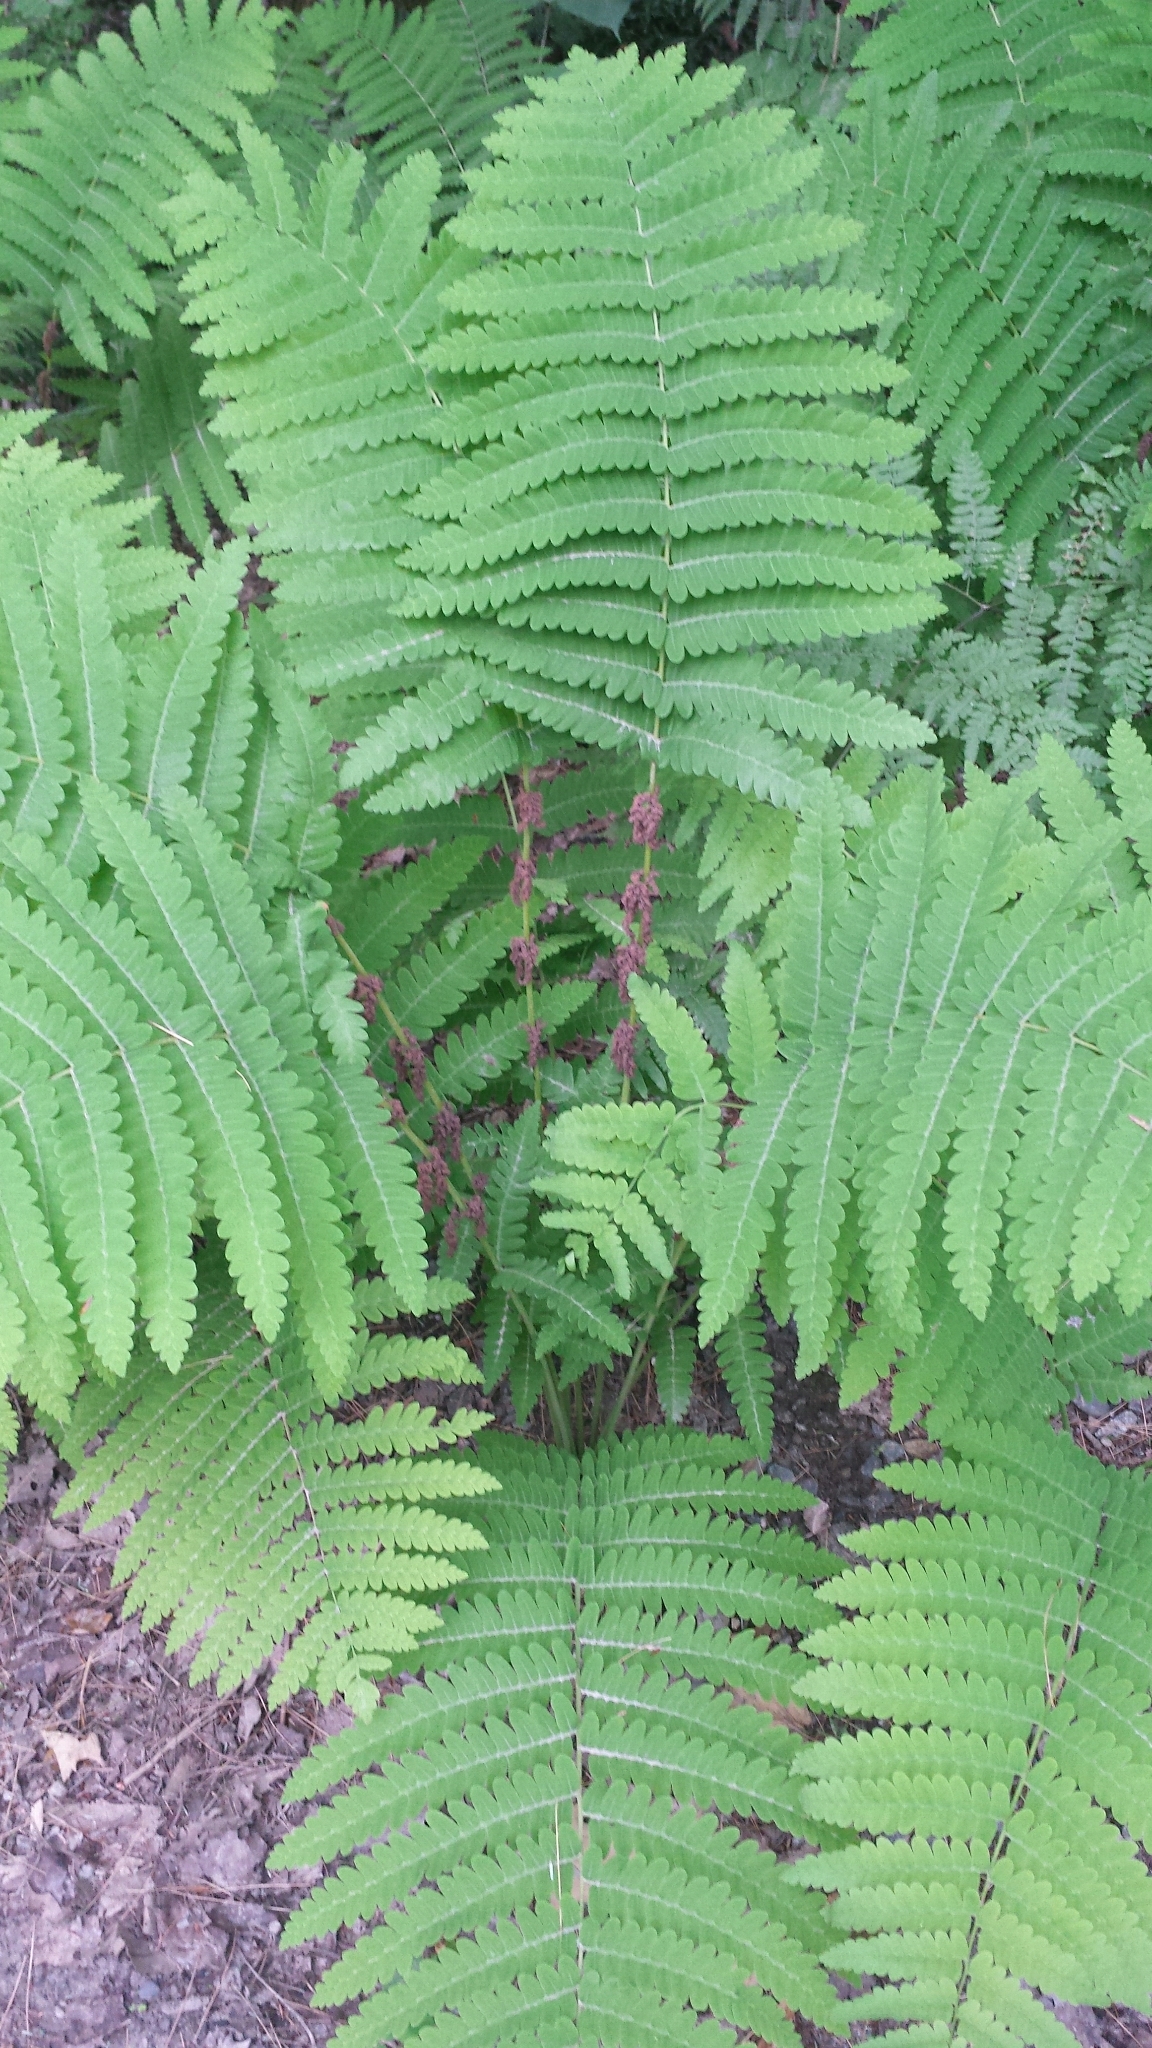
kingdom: Plantae
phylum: Tracheophyta
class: Polypodiopsida
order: Osmundales
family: Osmundaceae
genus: Claytosmunda
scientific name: Claytosmunda claytoniana
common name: Clayton's fern
